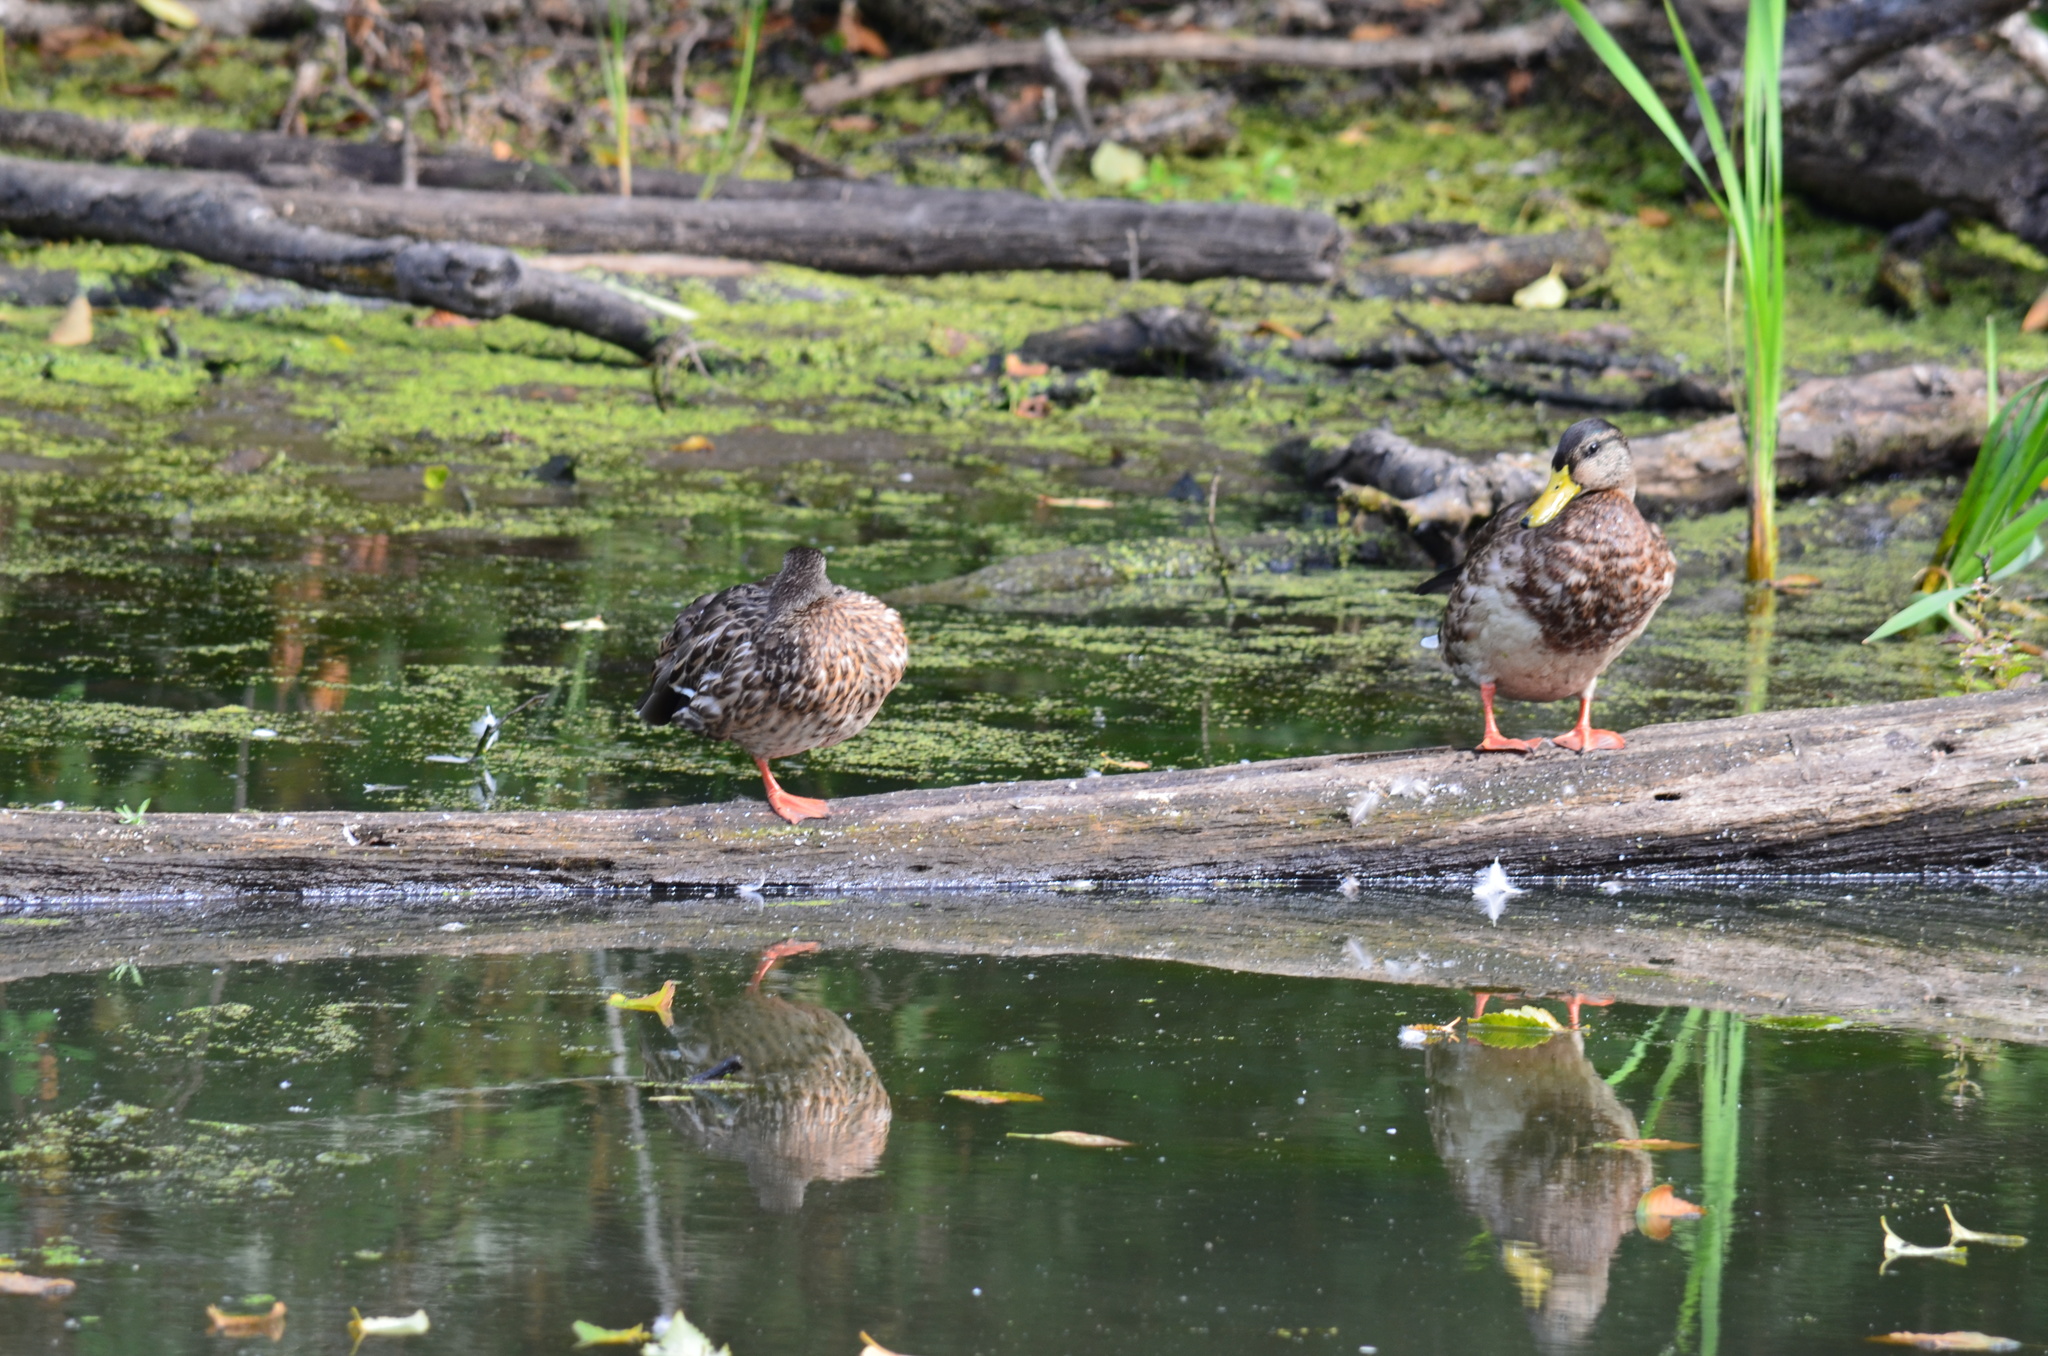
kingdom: Animalia
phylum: Chordata
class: Aves
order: Anseriformes
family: Anatidae
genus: Anas
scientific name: Anas platyrhynchos
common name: Mallard
